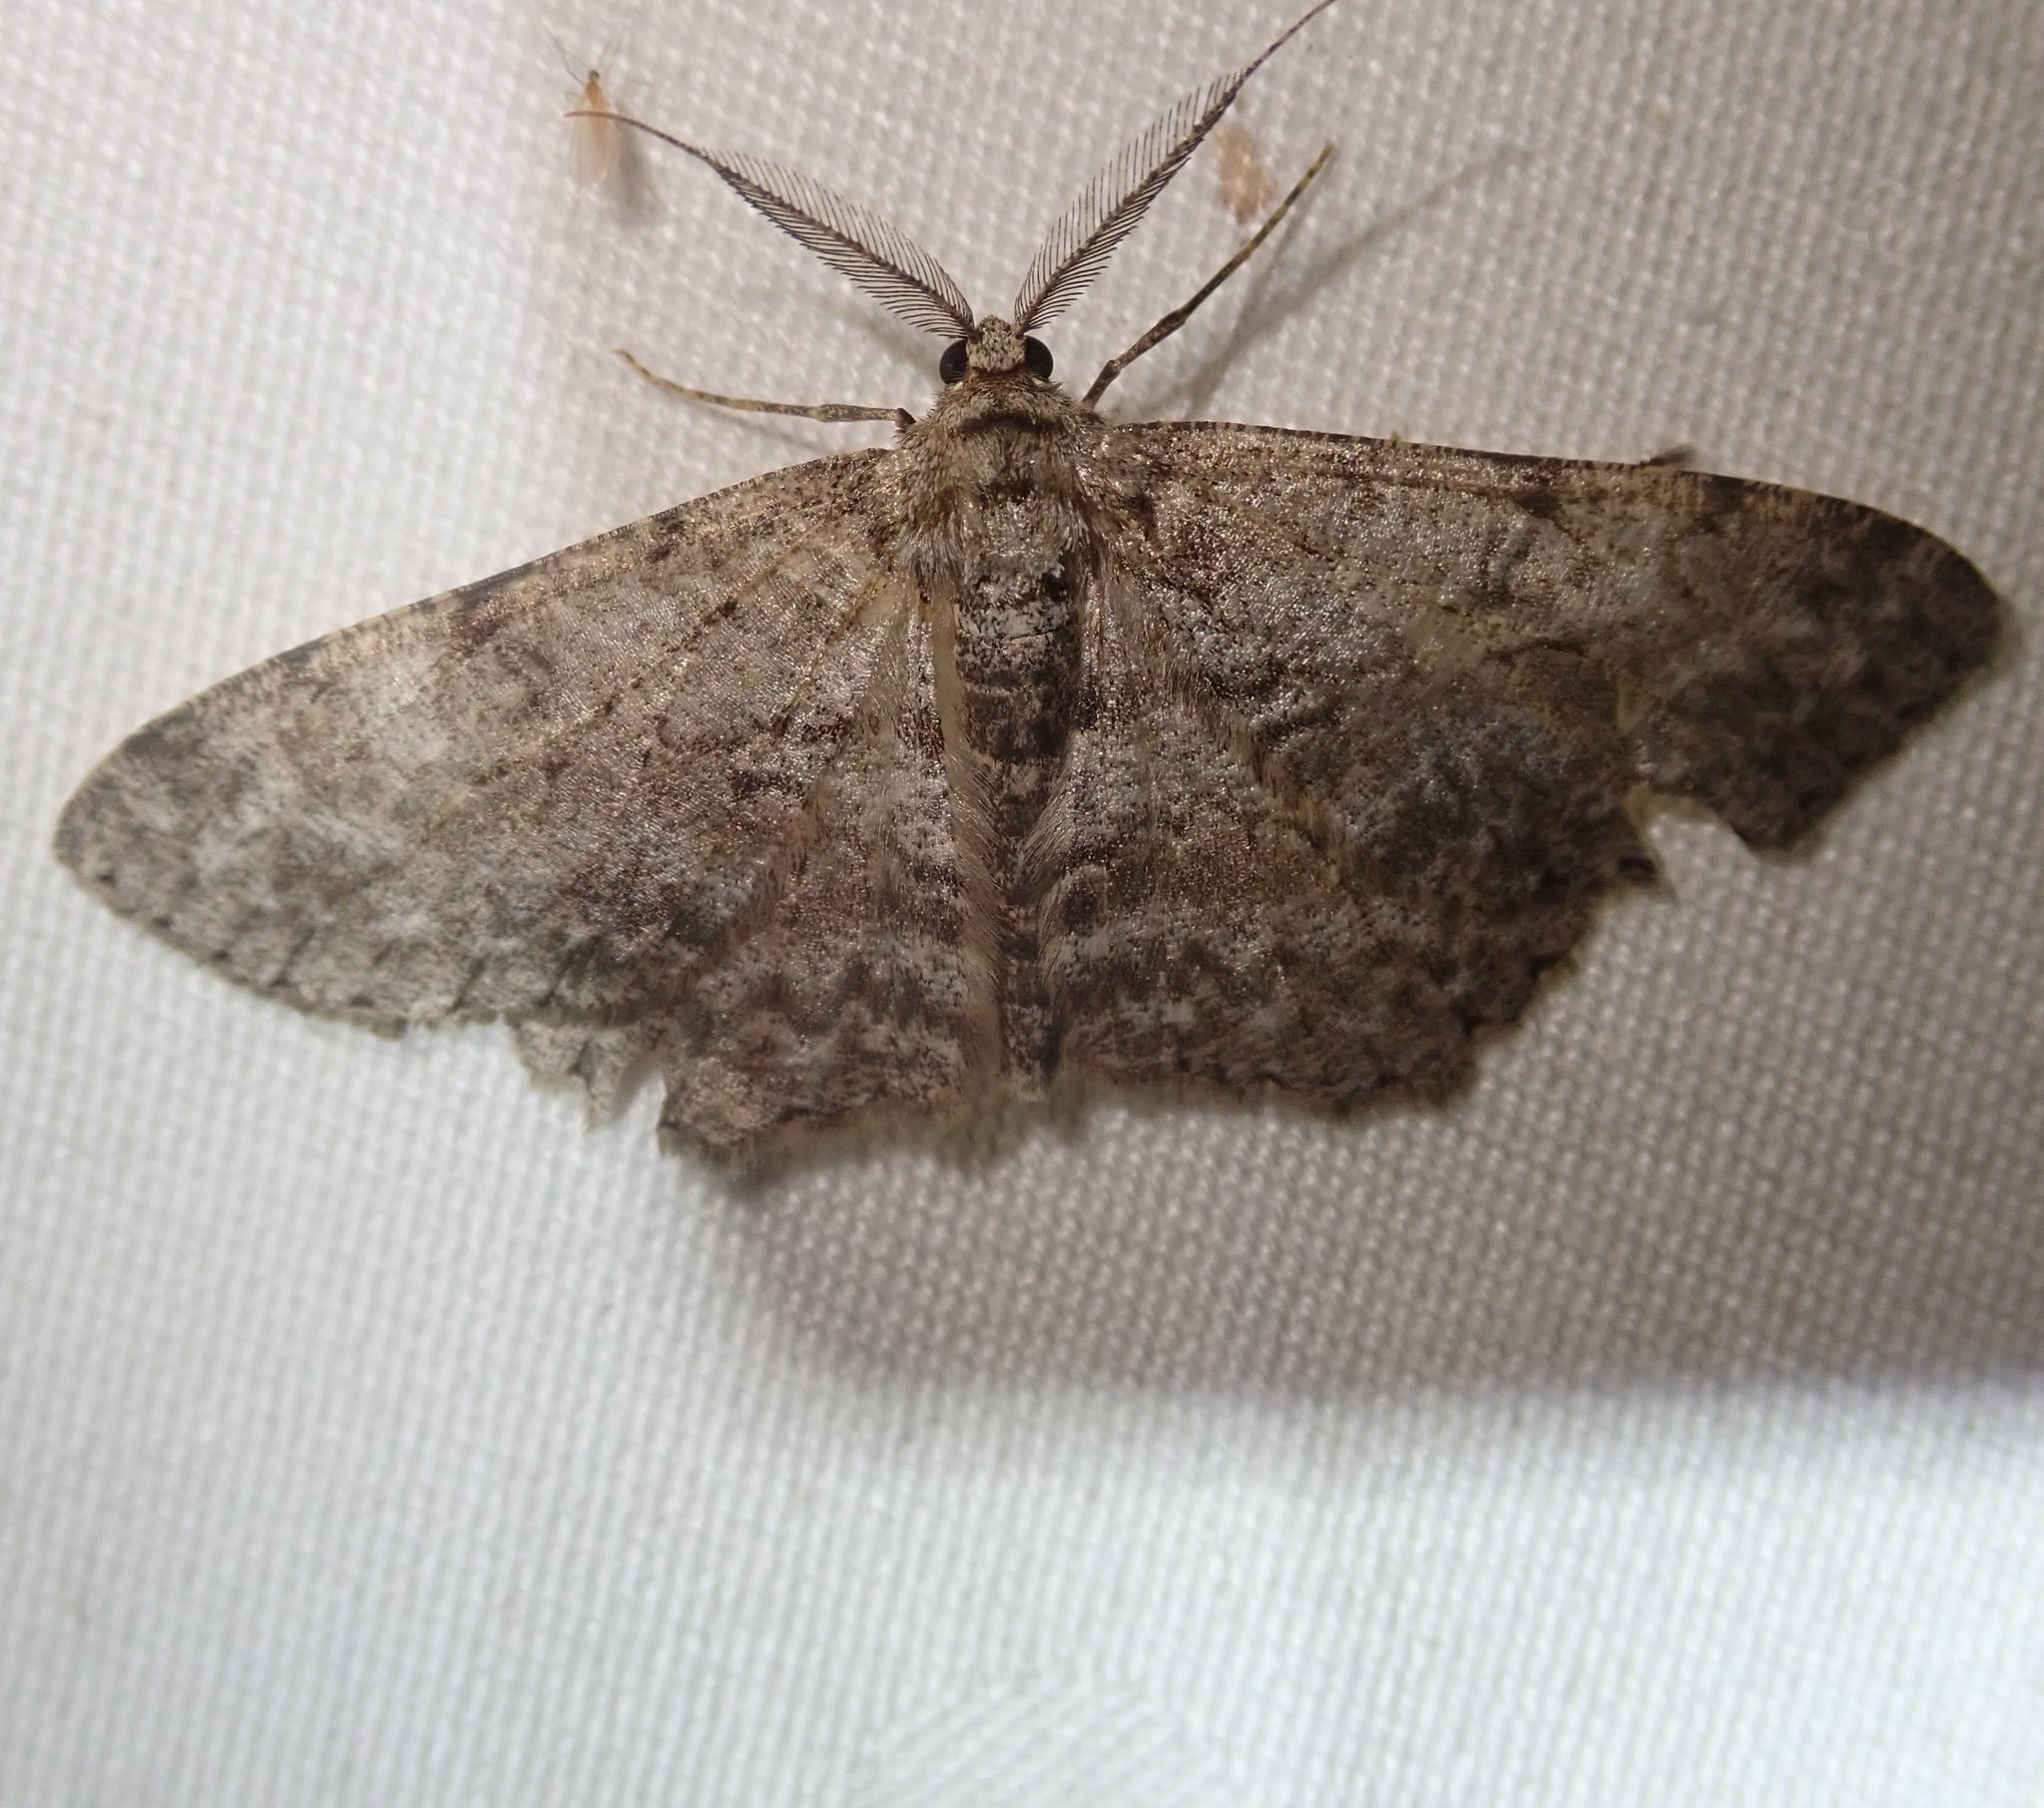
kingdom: Animalia
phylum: Arthropoda
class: Insecta
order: Lepidoptera
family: Geometridae
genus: Hypomecis
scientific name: Hypomecis punctinalis
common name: Pale oak beauty
